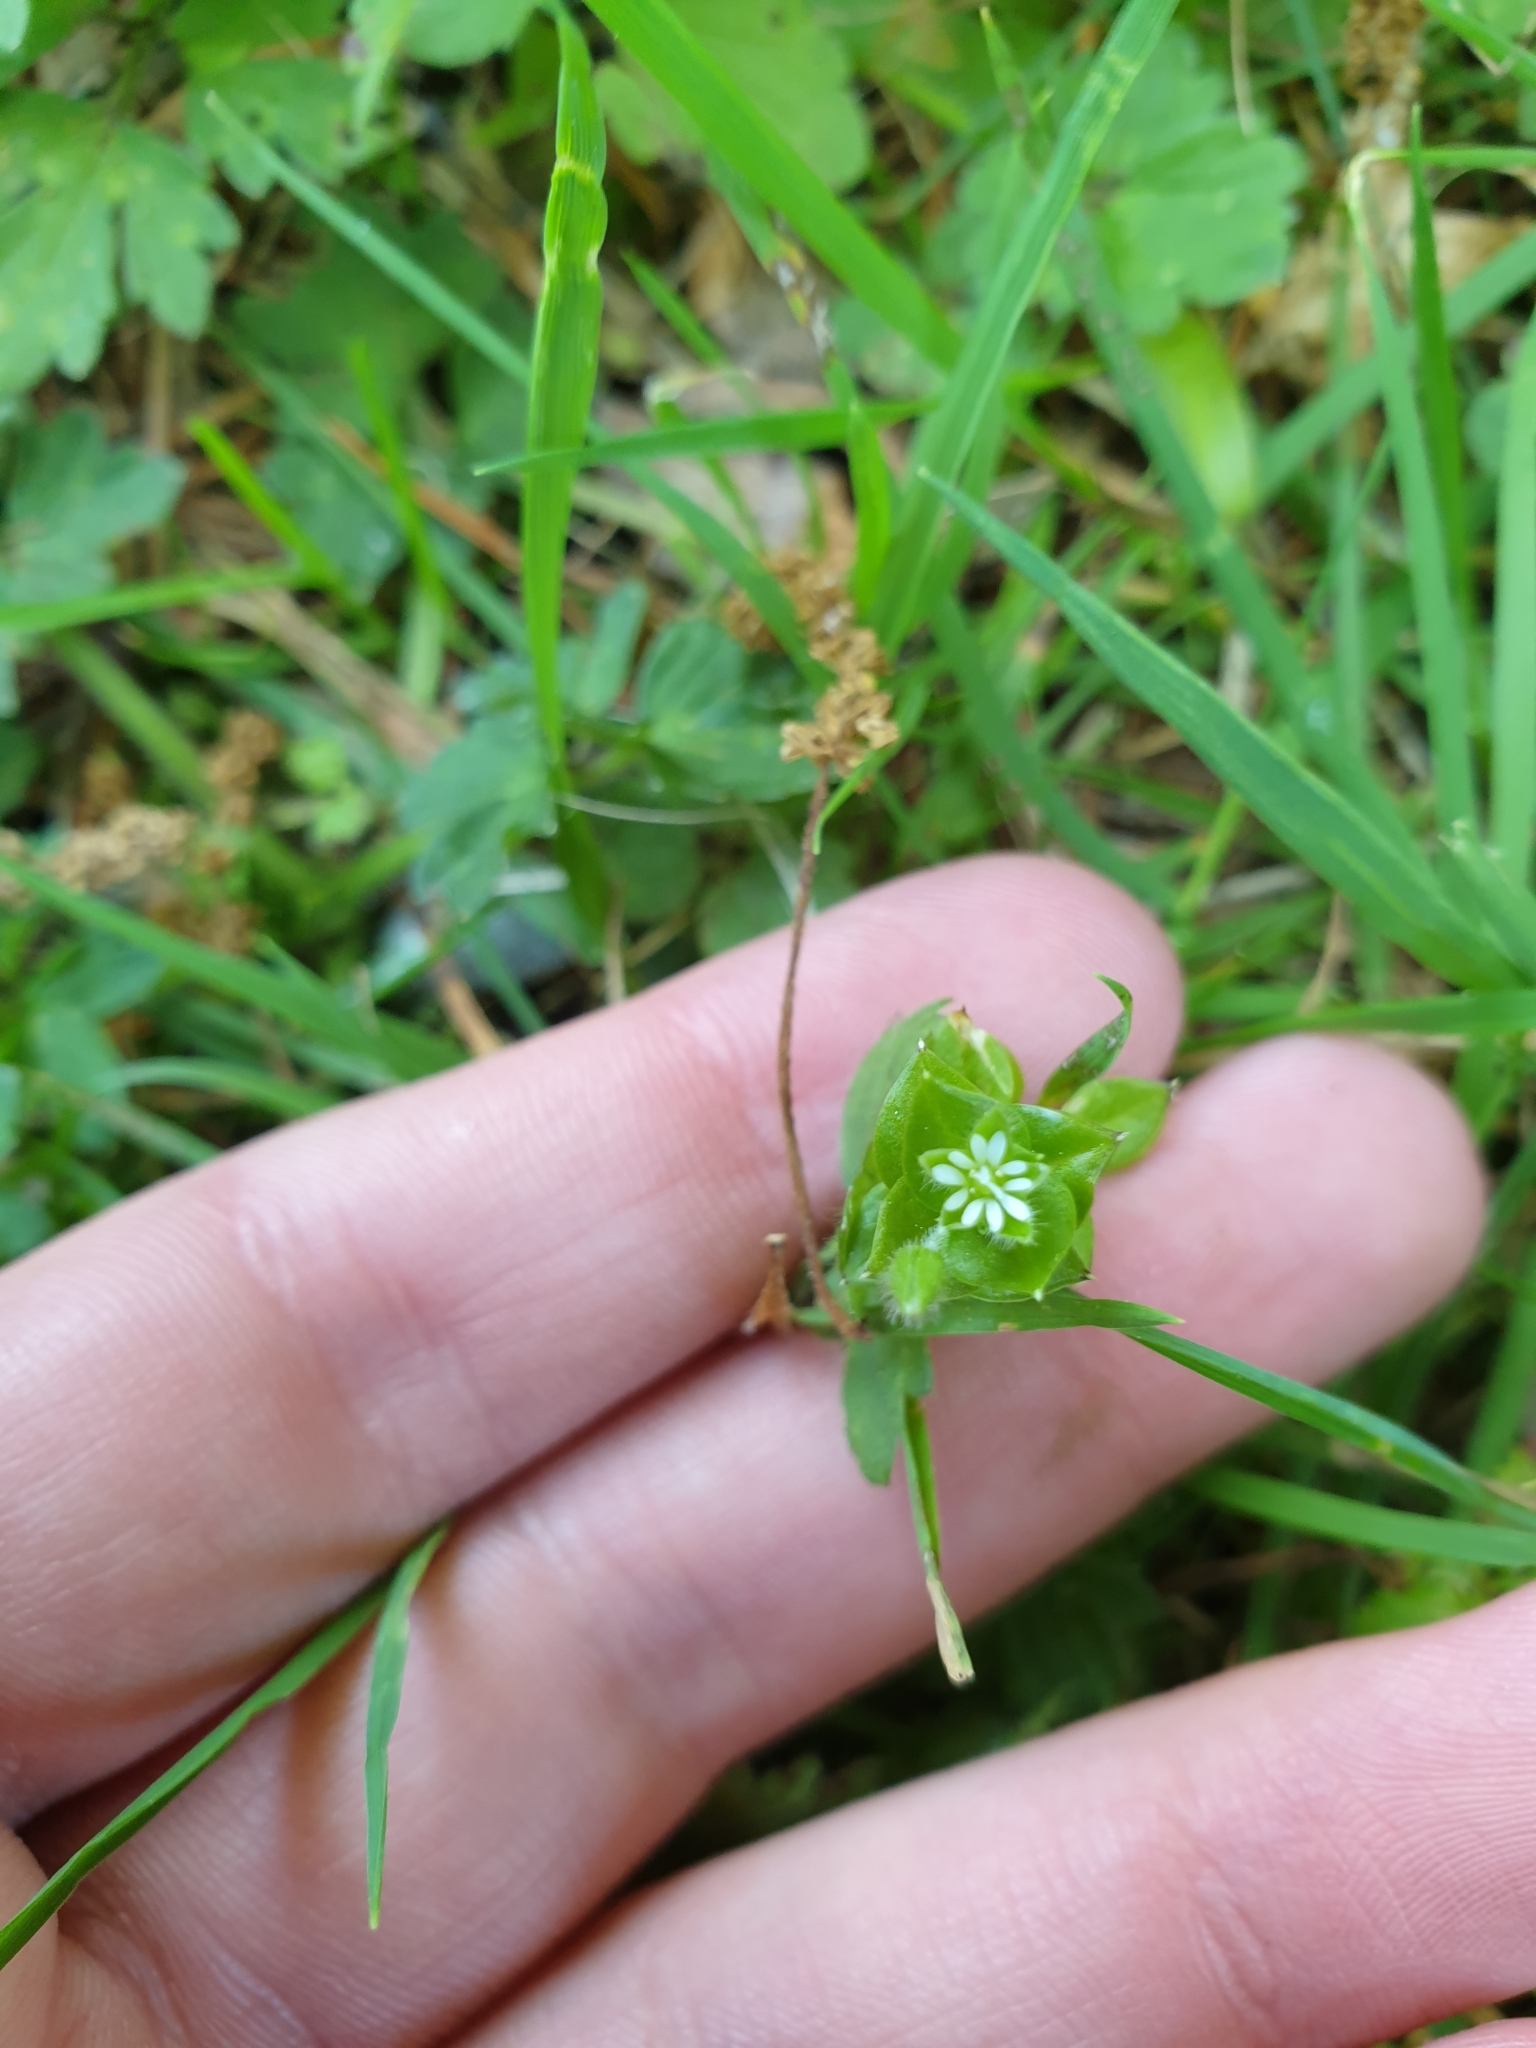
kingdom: Plantae
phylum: Tracheophyta
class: Magnoliopsida
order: Caryophyllales
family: Caryophyllaceae
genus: Stellaria
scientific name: Stellaria media
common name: Common chickweed
